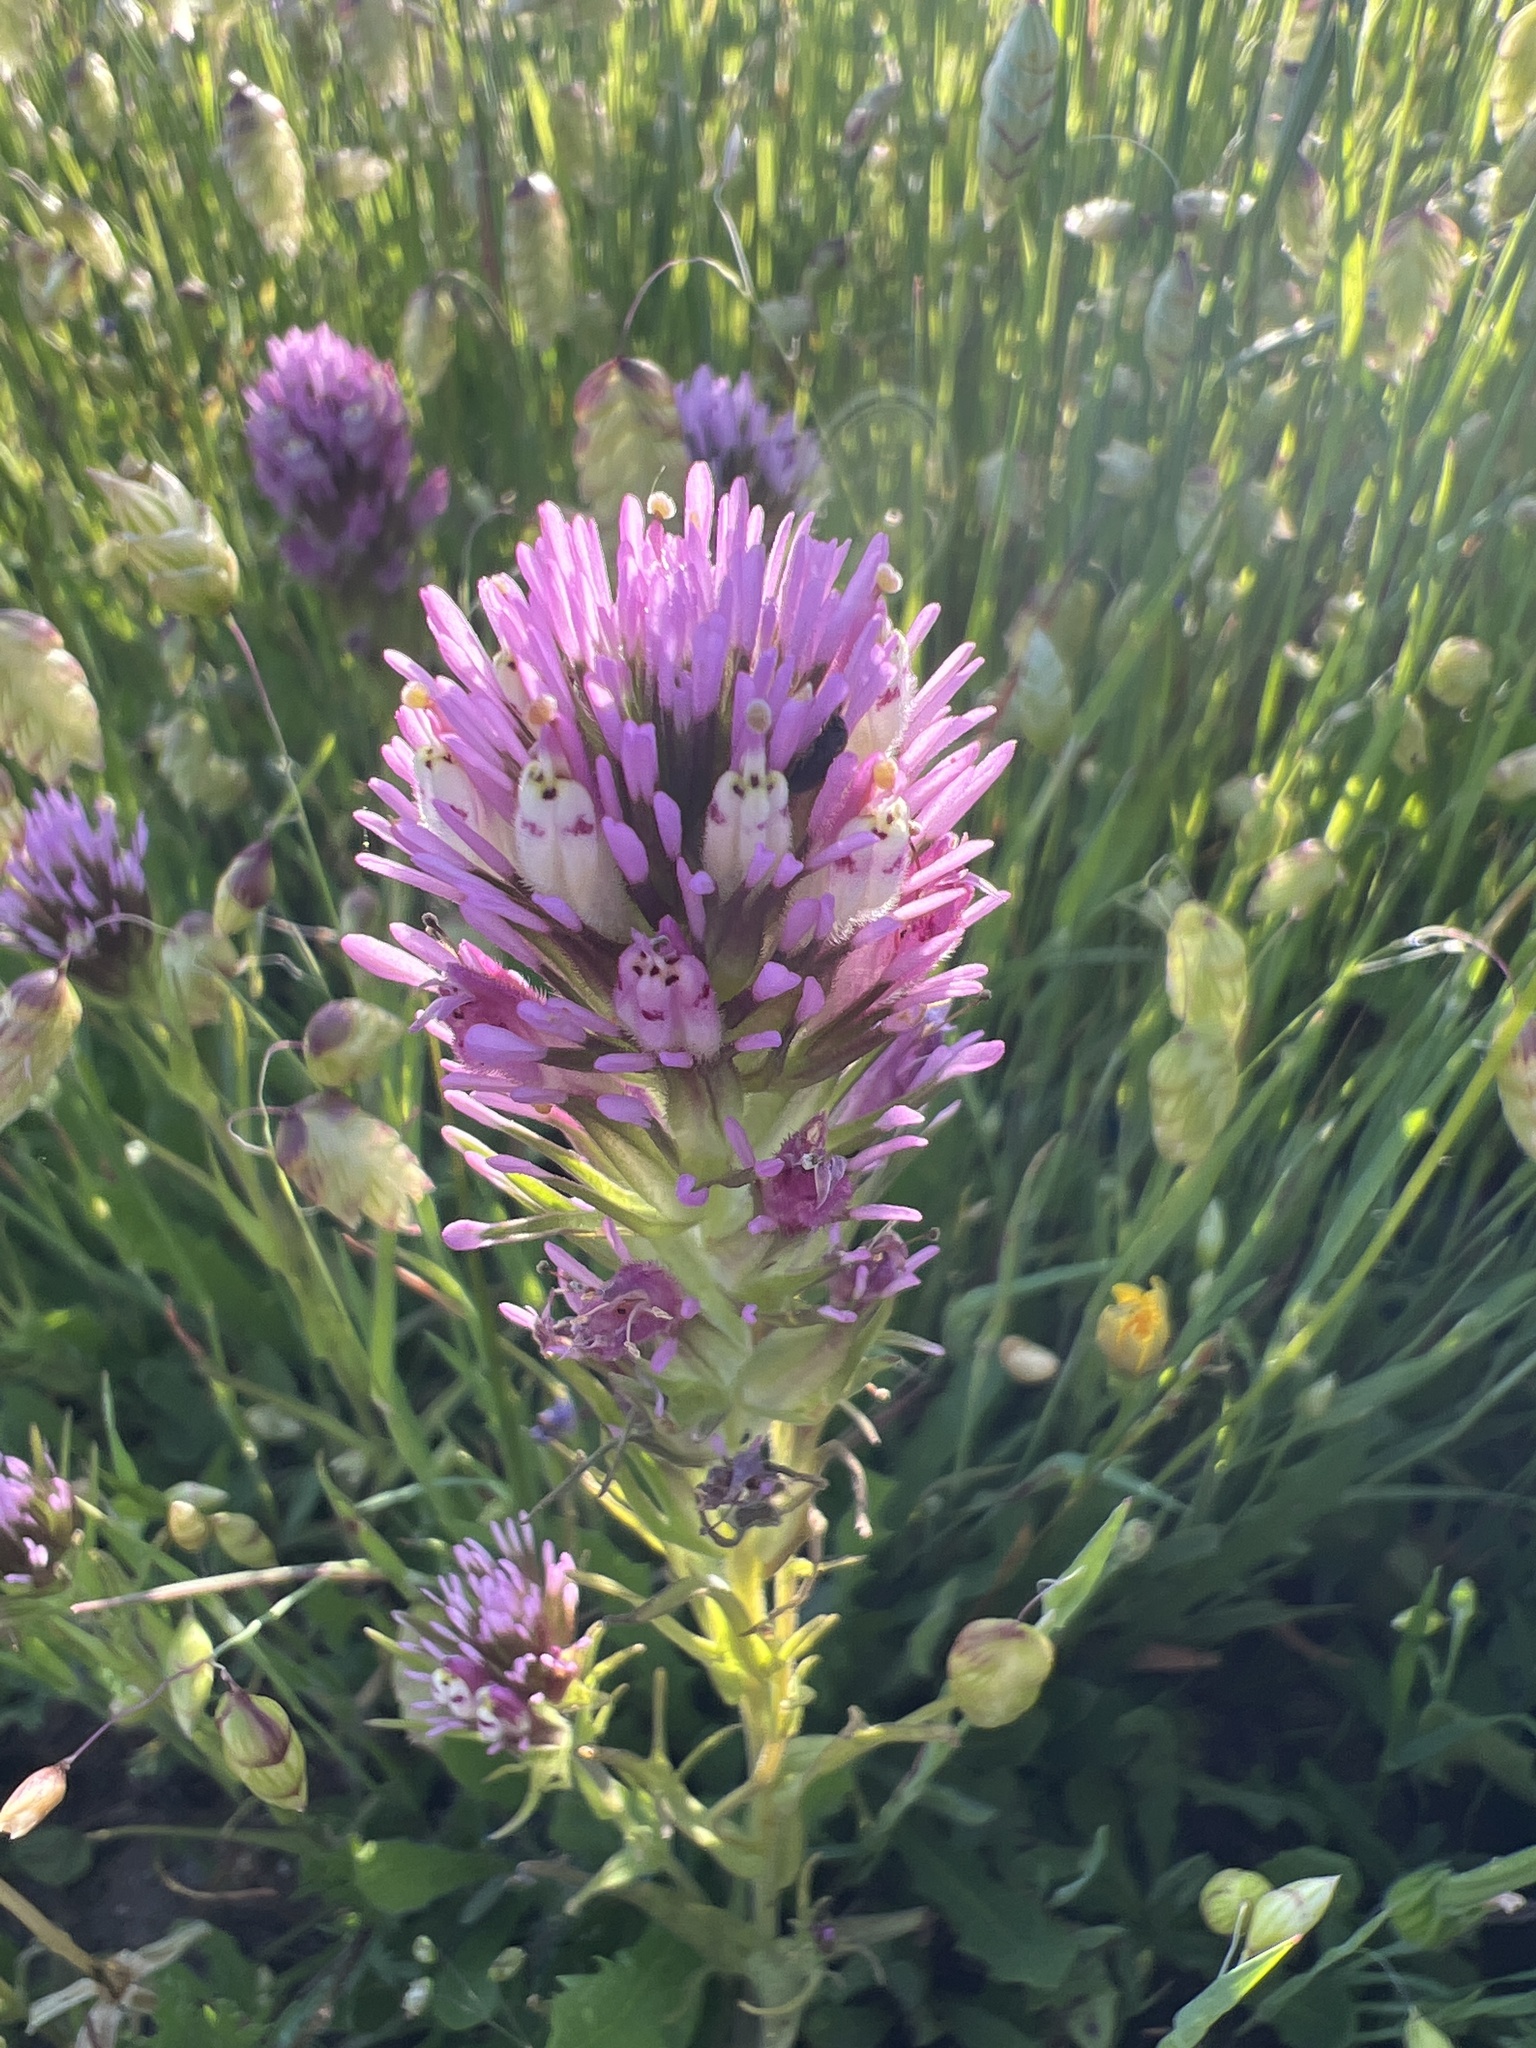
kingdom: Plantae
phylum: Tracheophyta
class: Magnoliopsida
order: Lamiales
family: Orobanchaceae
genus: Castilleja
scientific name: Castilleja densiflora
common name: Dense-flower indian paintbrush
